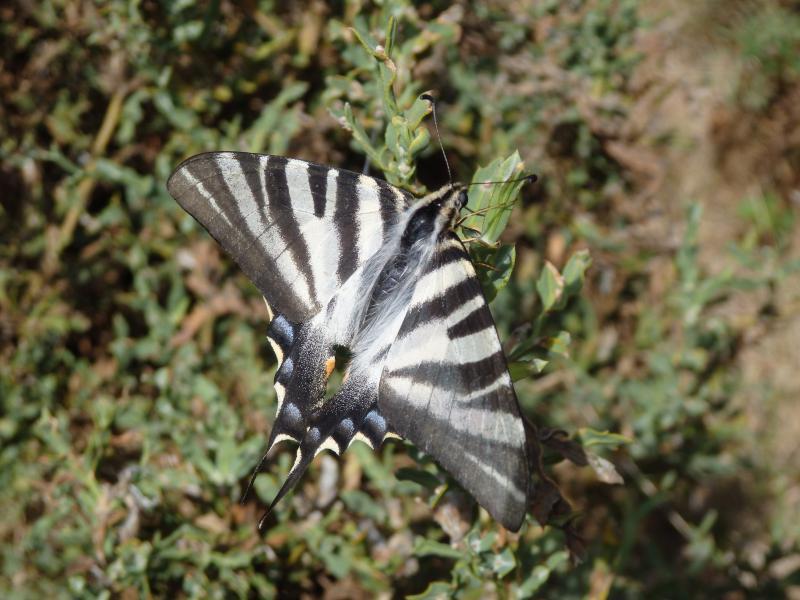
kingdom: Animalia
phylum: Arthropoda
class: Insecta
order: Lepidoptera
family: Papilionidae
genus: Iphiclides
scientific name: Iphiclides feisthamelii
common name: Iberian scarce swallowtail
